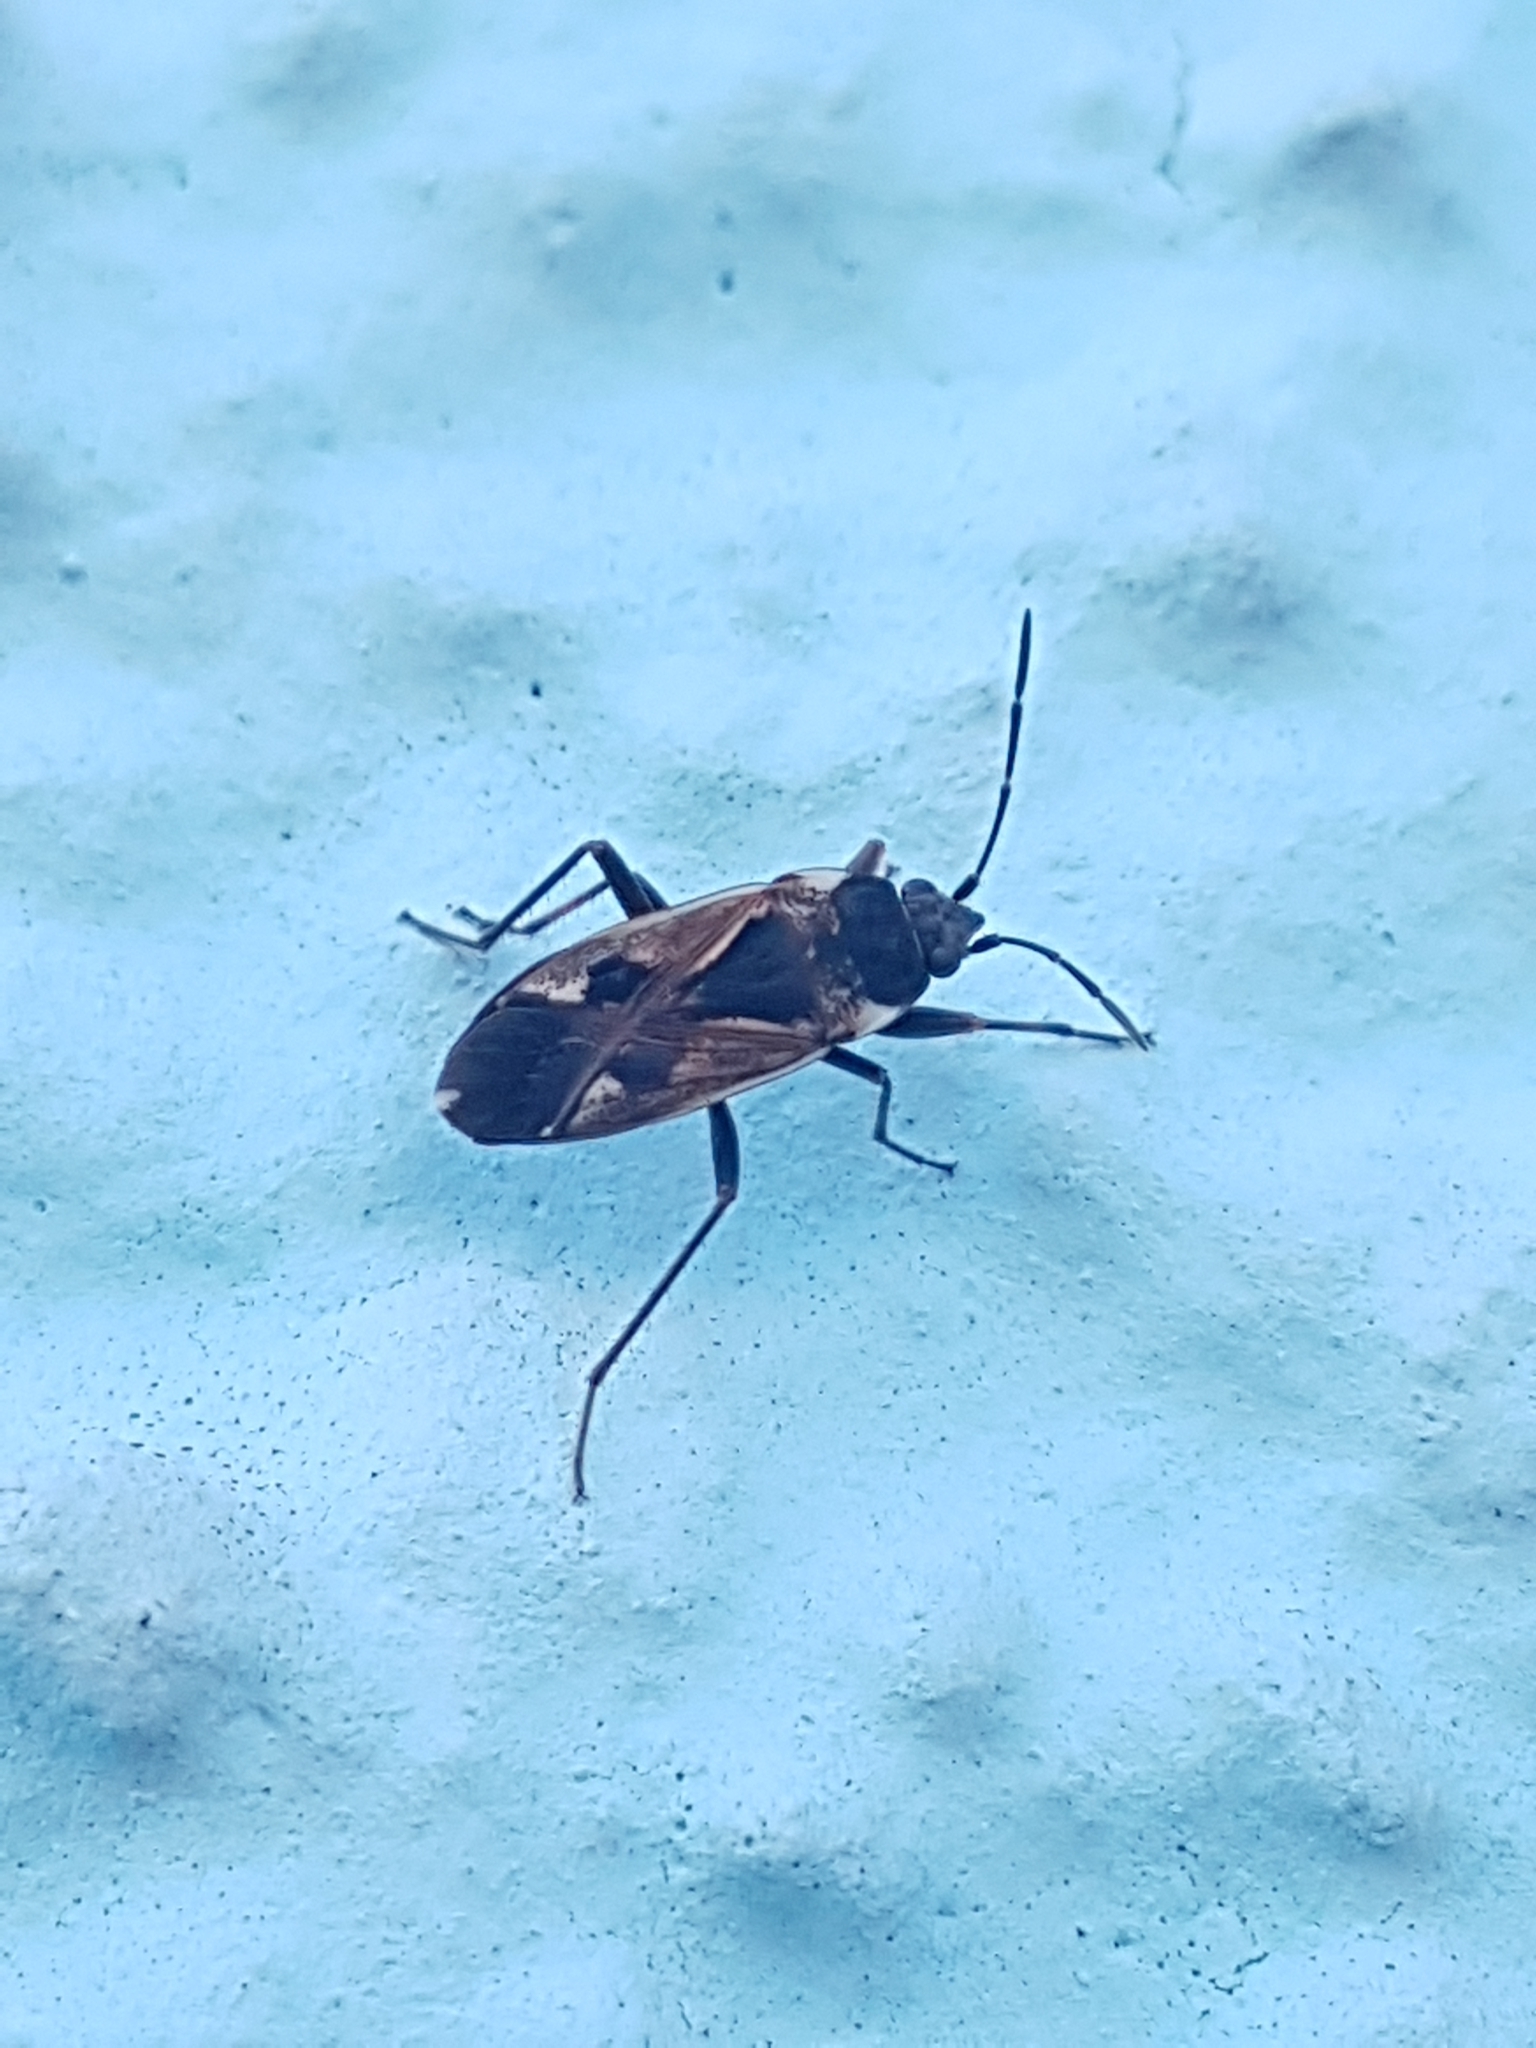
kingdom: Animalia
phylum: Arthropoda
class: Insecta
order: Hemiptera
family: Rhyparochromidae
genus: Rhyparochromus
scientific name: Rhyparochromus vulgaris
